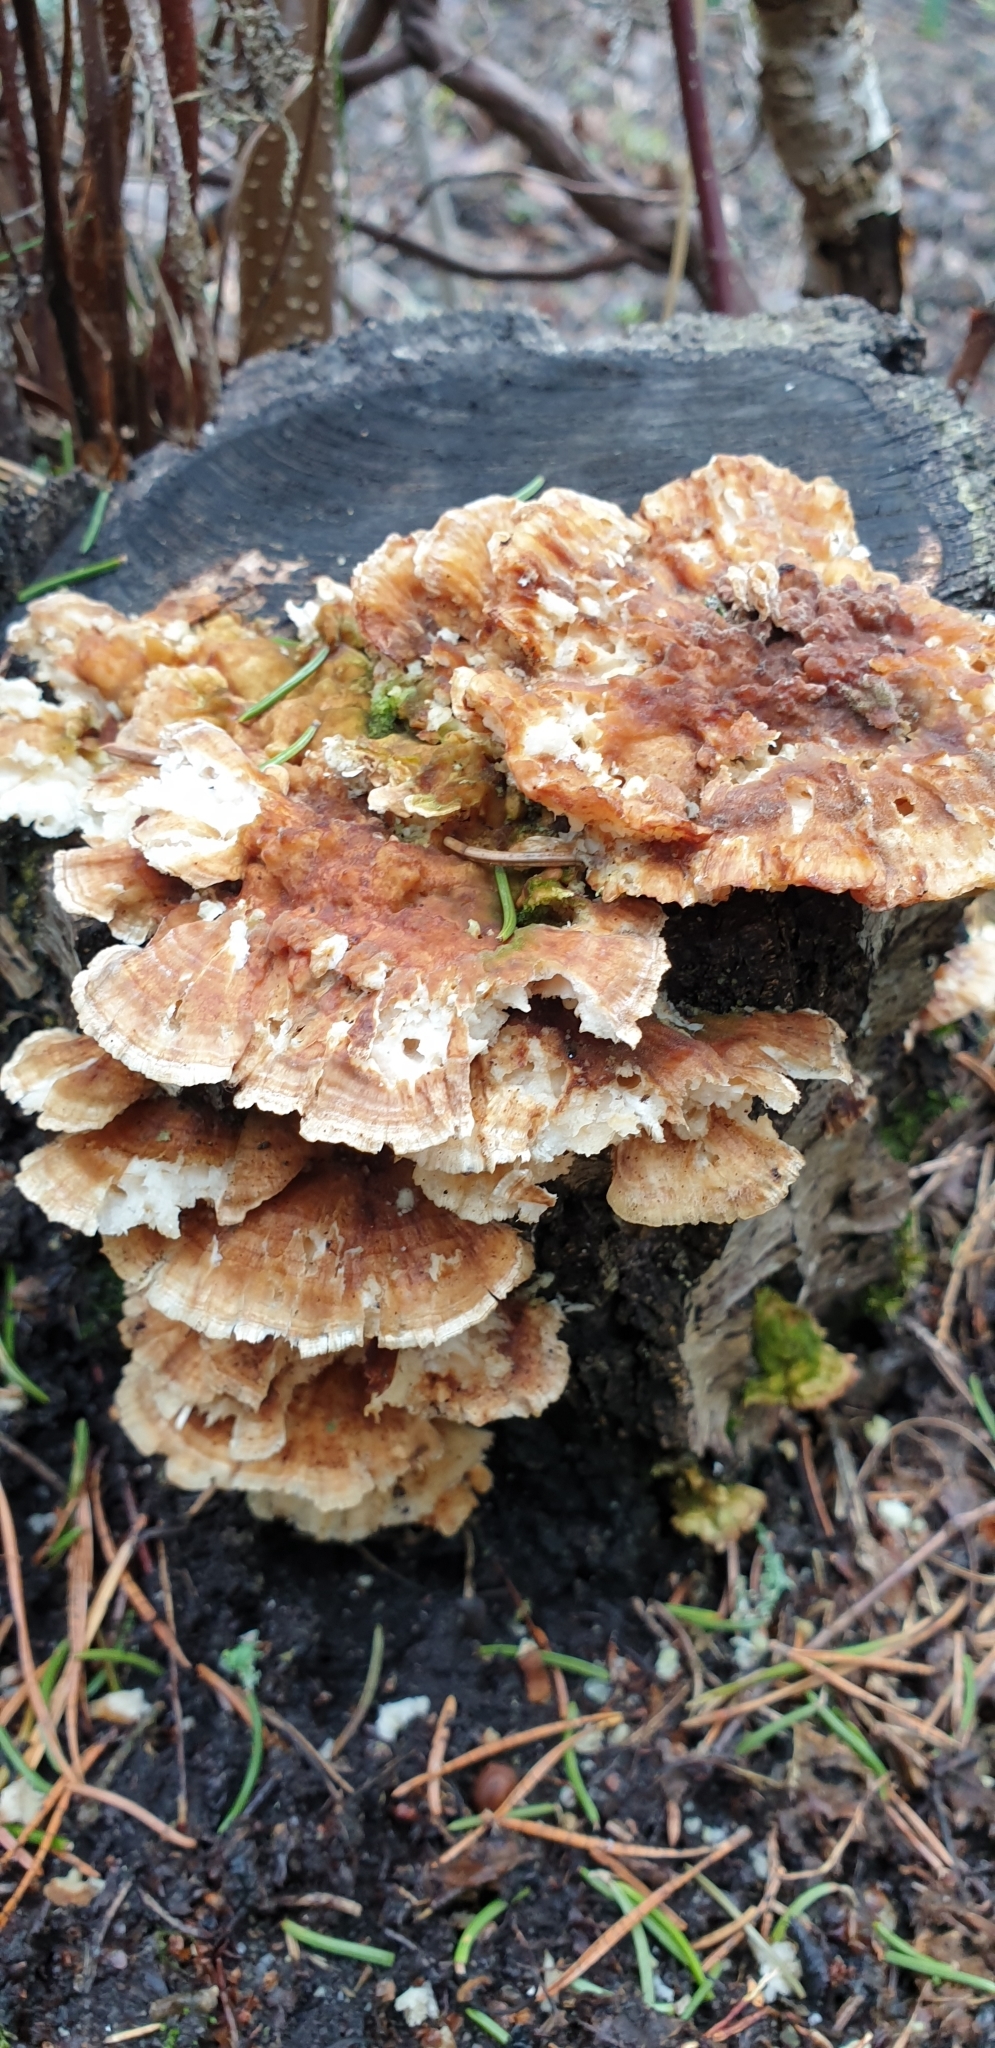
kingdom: Fungi
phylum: Basidiomycota
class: Agaricomycetes
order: Polyporales
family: Polyporaceae
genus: Trametes
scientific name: Trametes ochracea
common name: Ochre bracket
